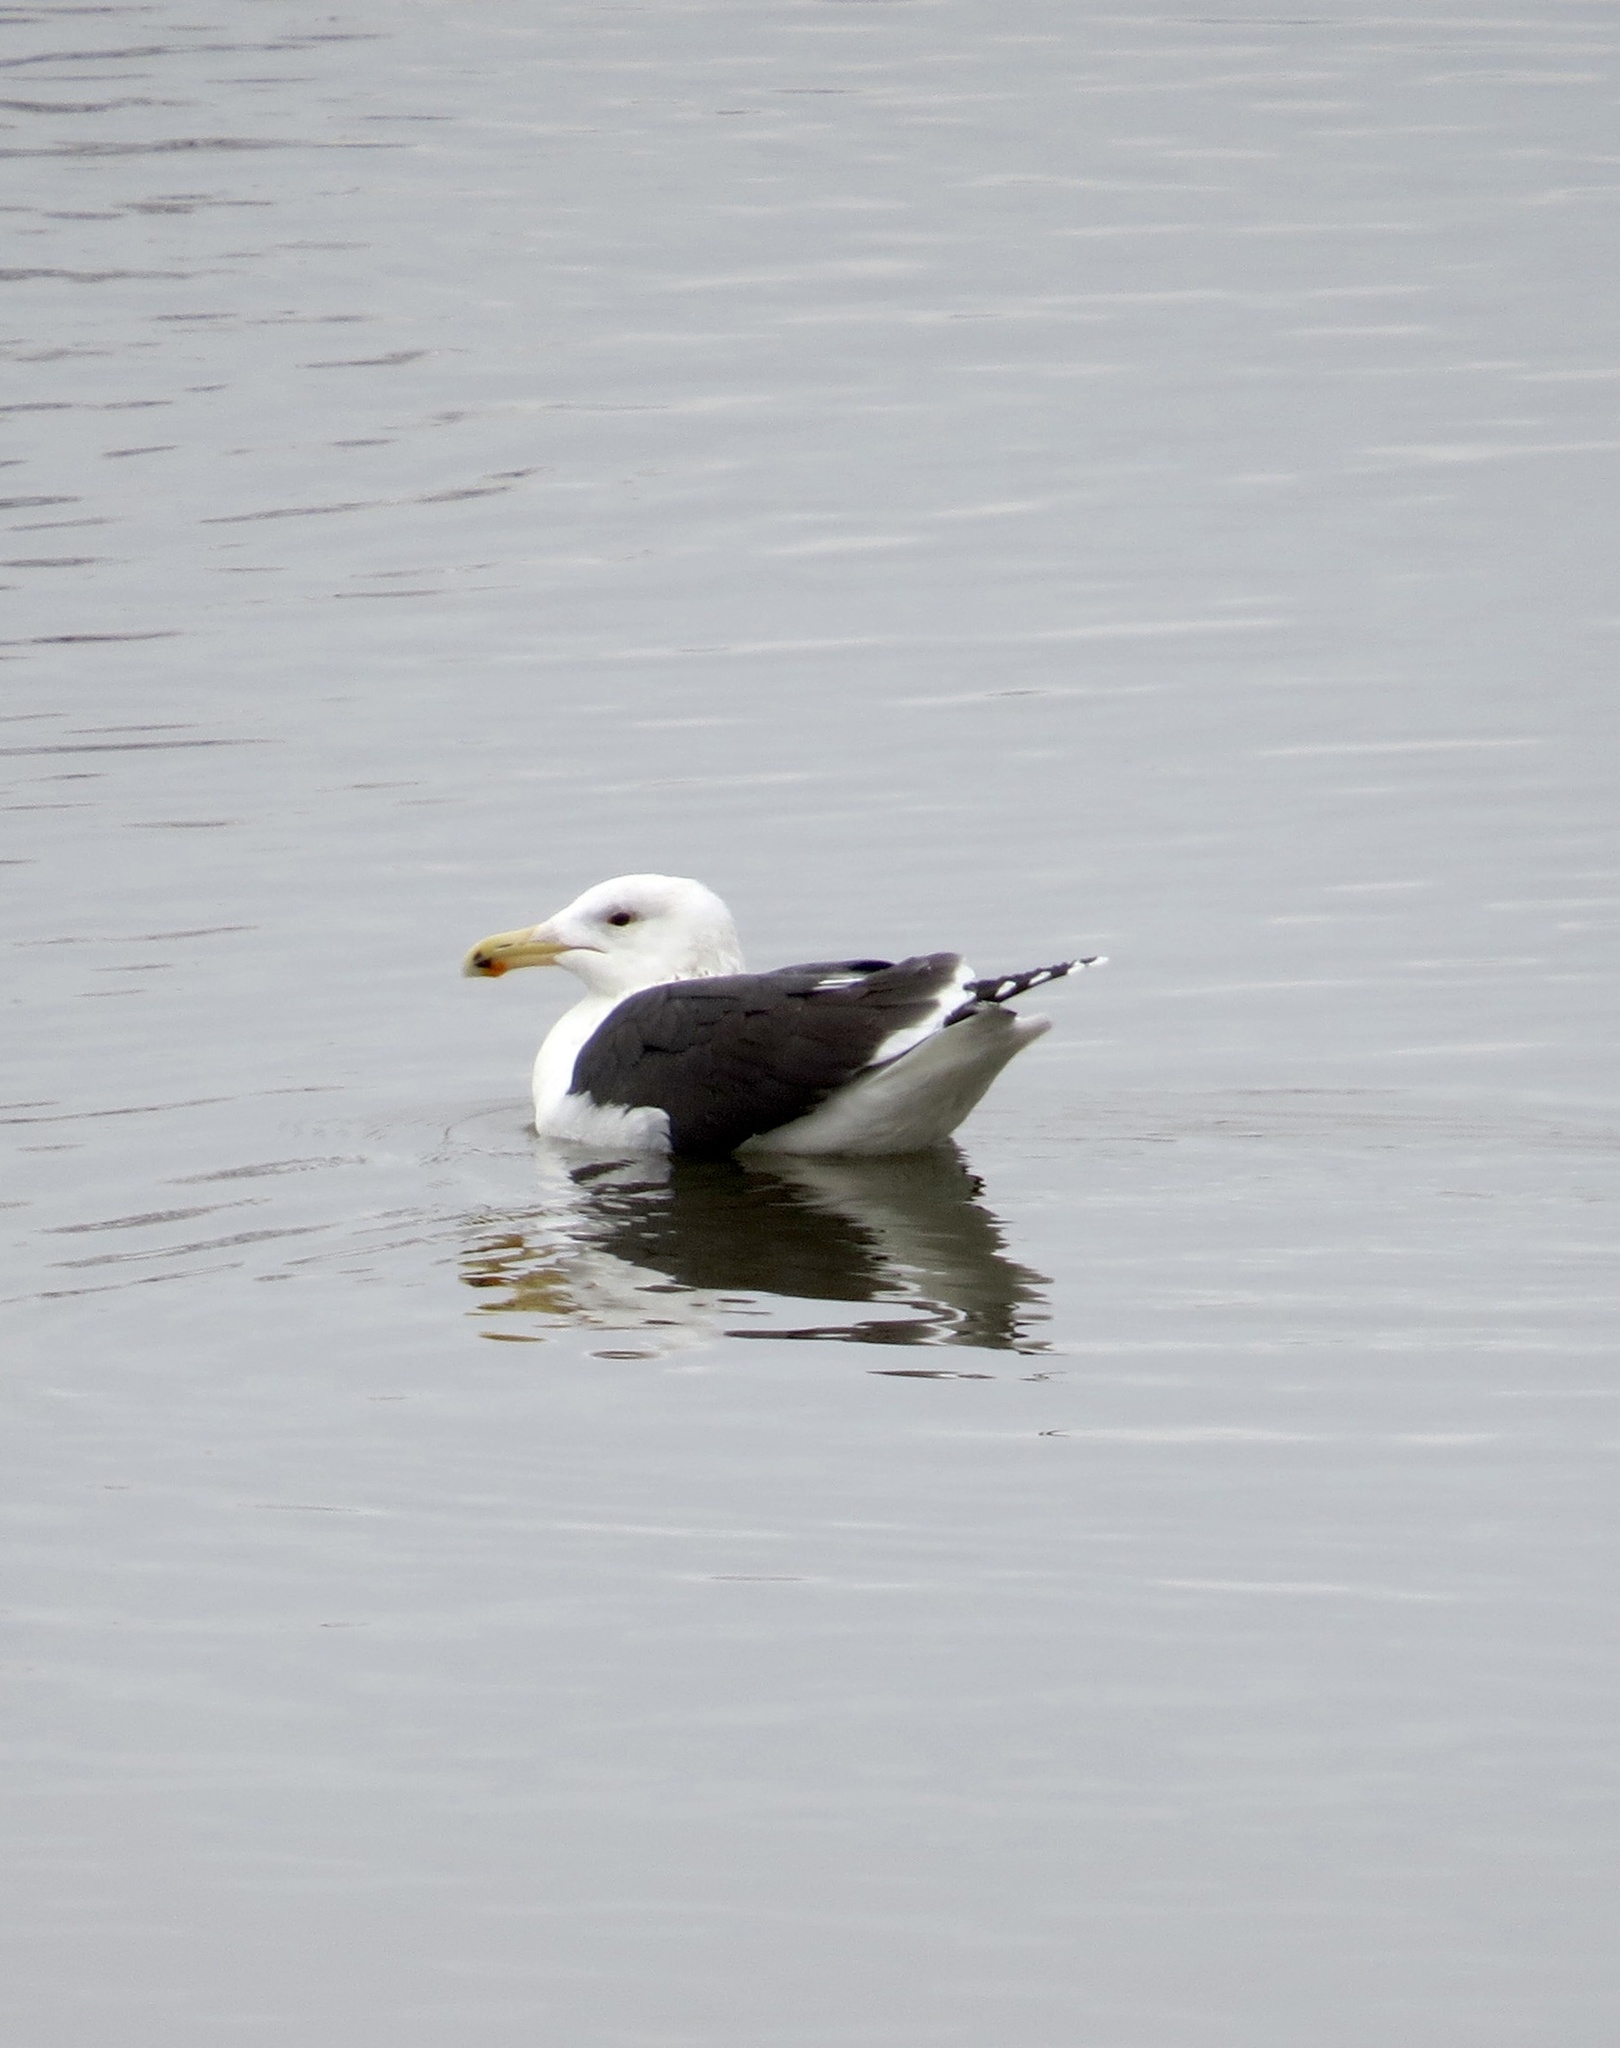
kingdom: Animalia
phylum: Chordata
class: Aves
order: Charadriiformes
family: Laridae
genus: Larus
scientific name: Larus marinus
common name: Great black-backed gull
